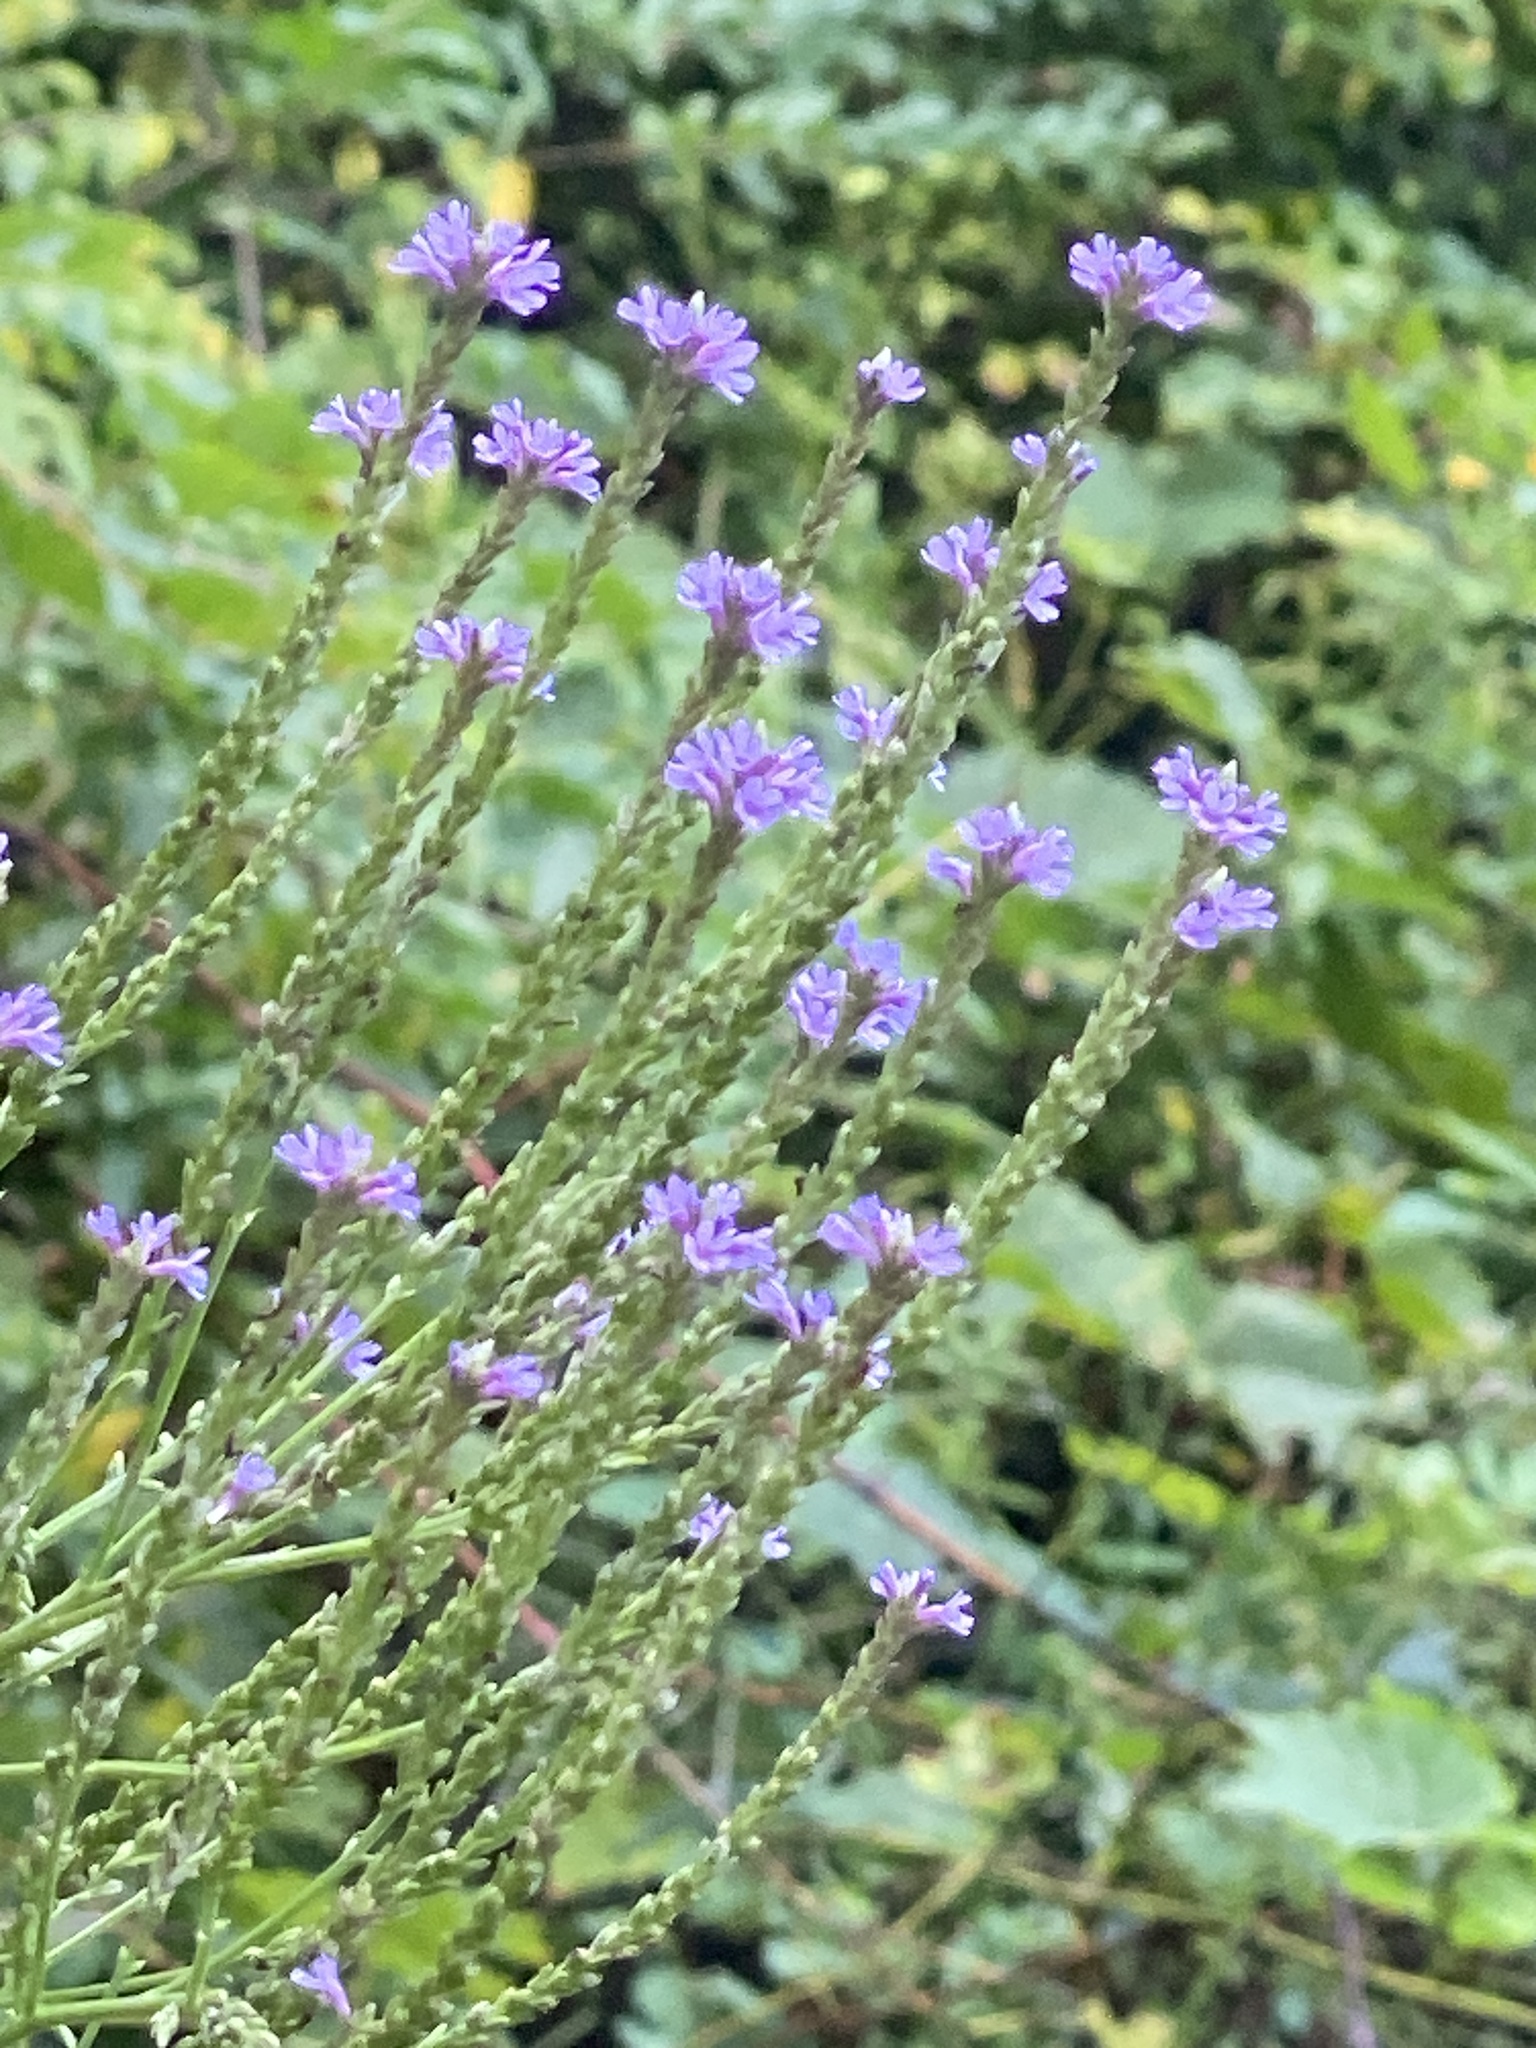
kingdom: Plantae
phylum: Tracheophyta
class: Magnoliopsida
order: Lamiales
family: Verbenaceae
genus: Verbena
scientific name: Verbena hastata
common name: American blue vervain
